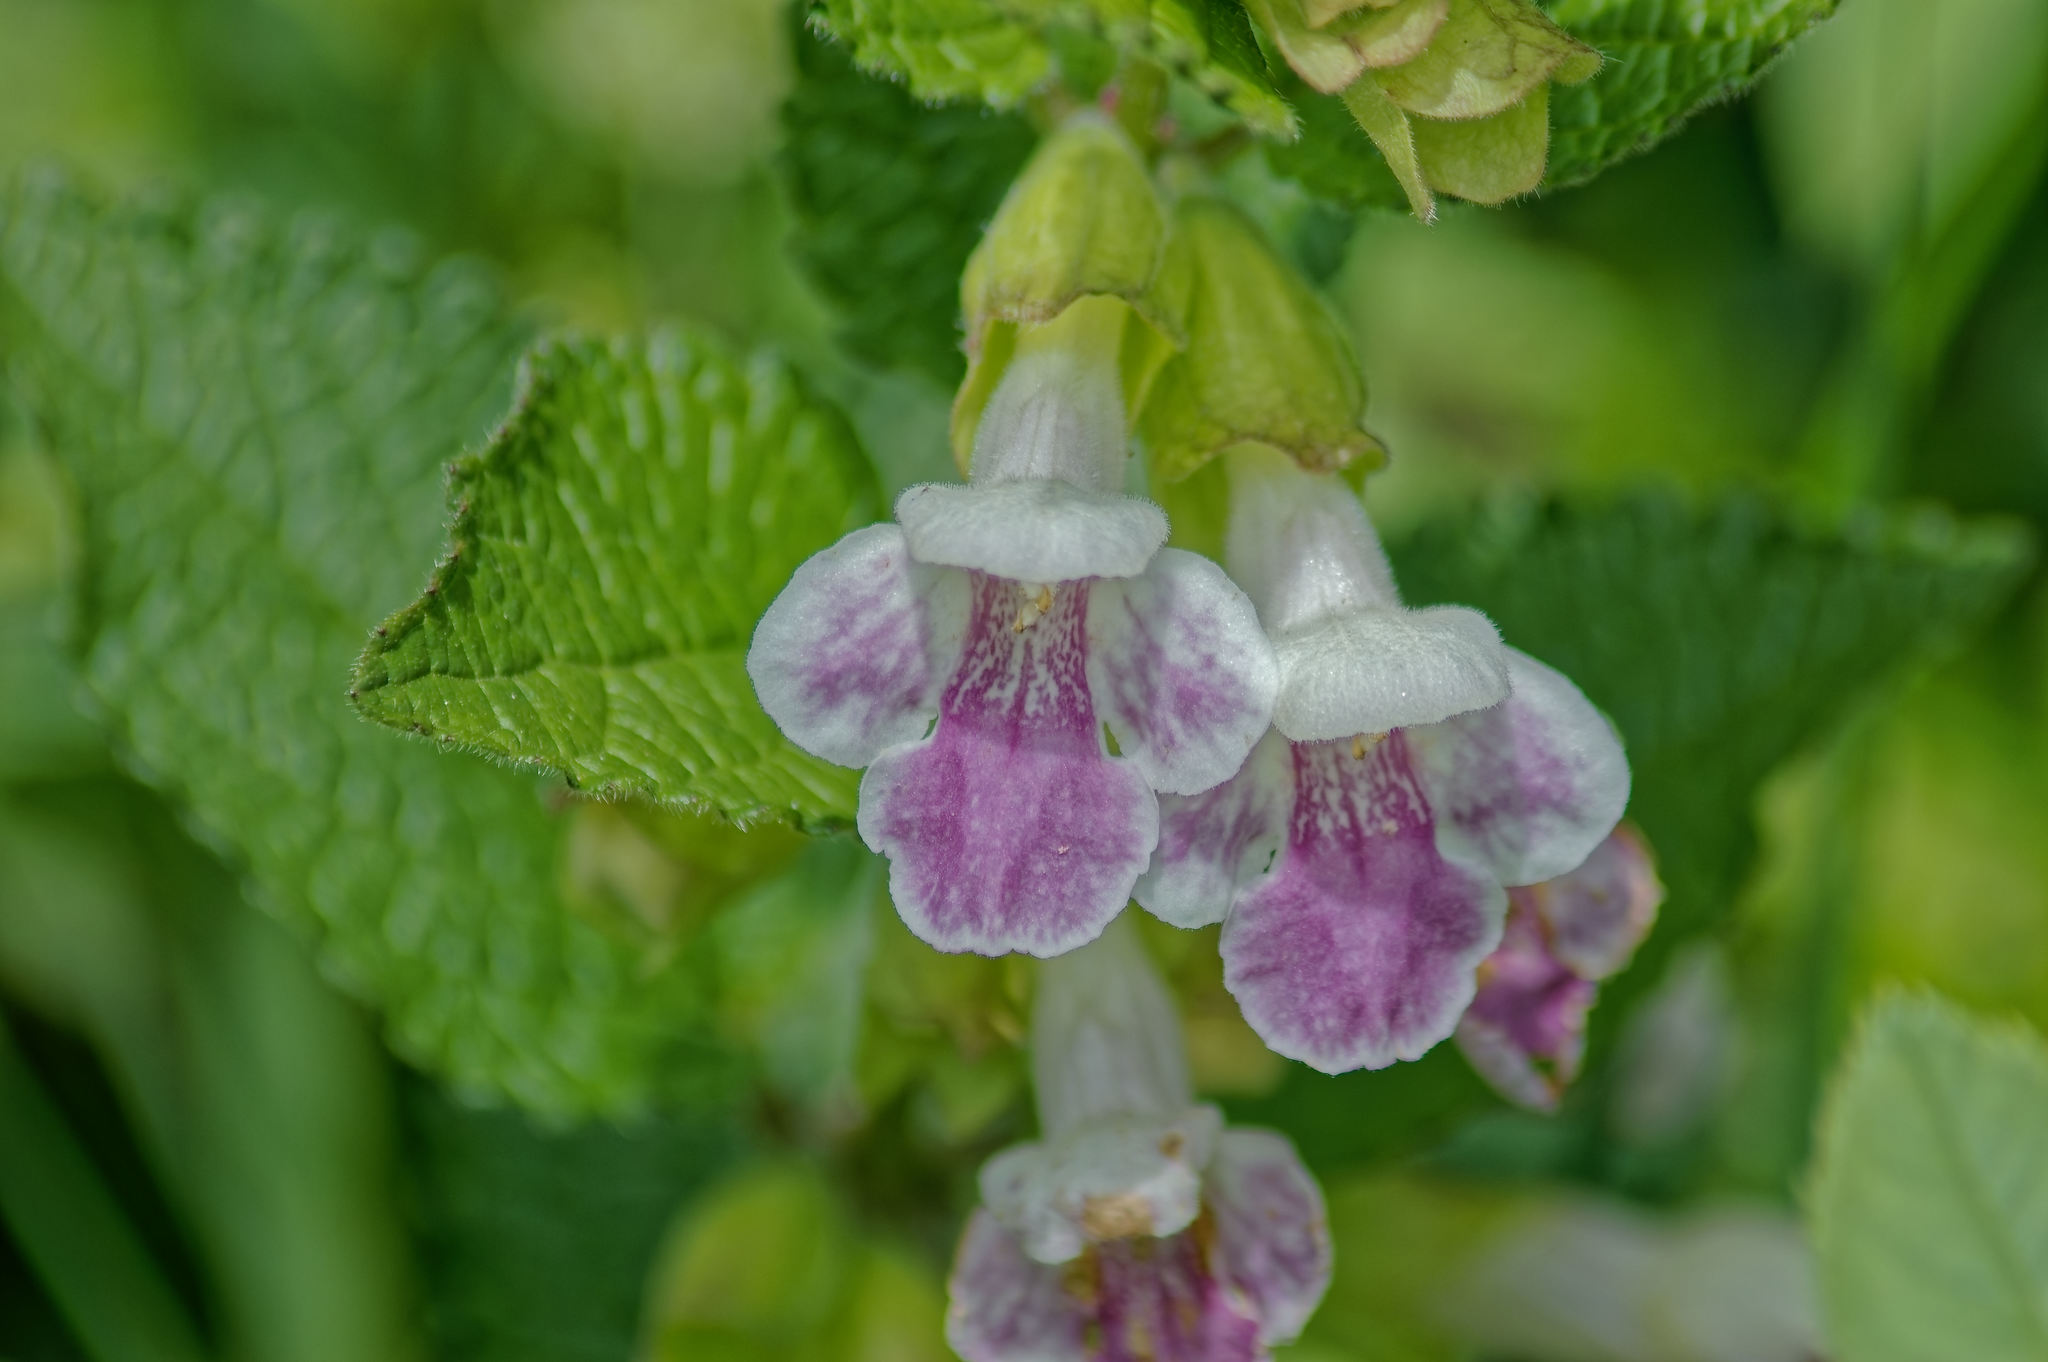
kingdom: Plantae
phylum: Tracheophyta
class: Magnoliopsida
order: Lamiales
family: Lamiaceae
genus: Melittis
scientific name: Melittis melissophyllum
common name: Bastard balm
